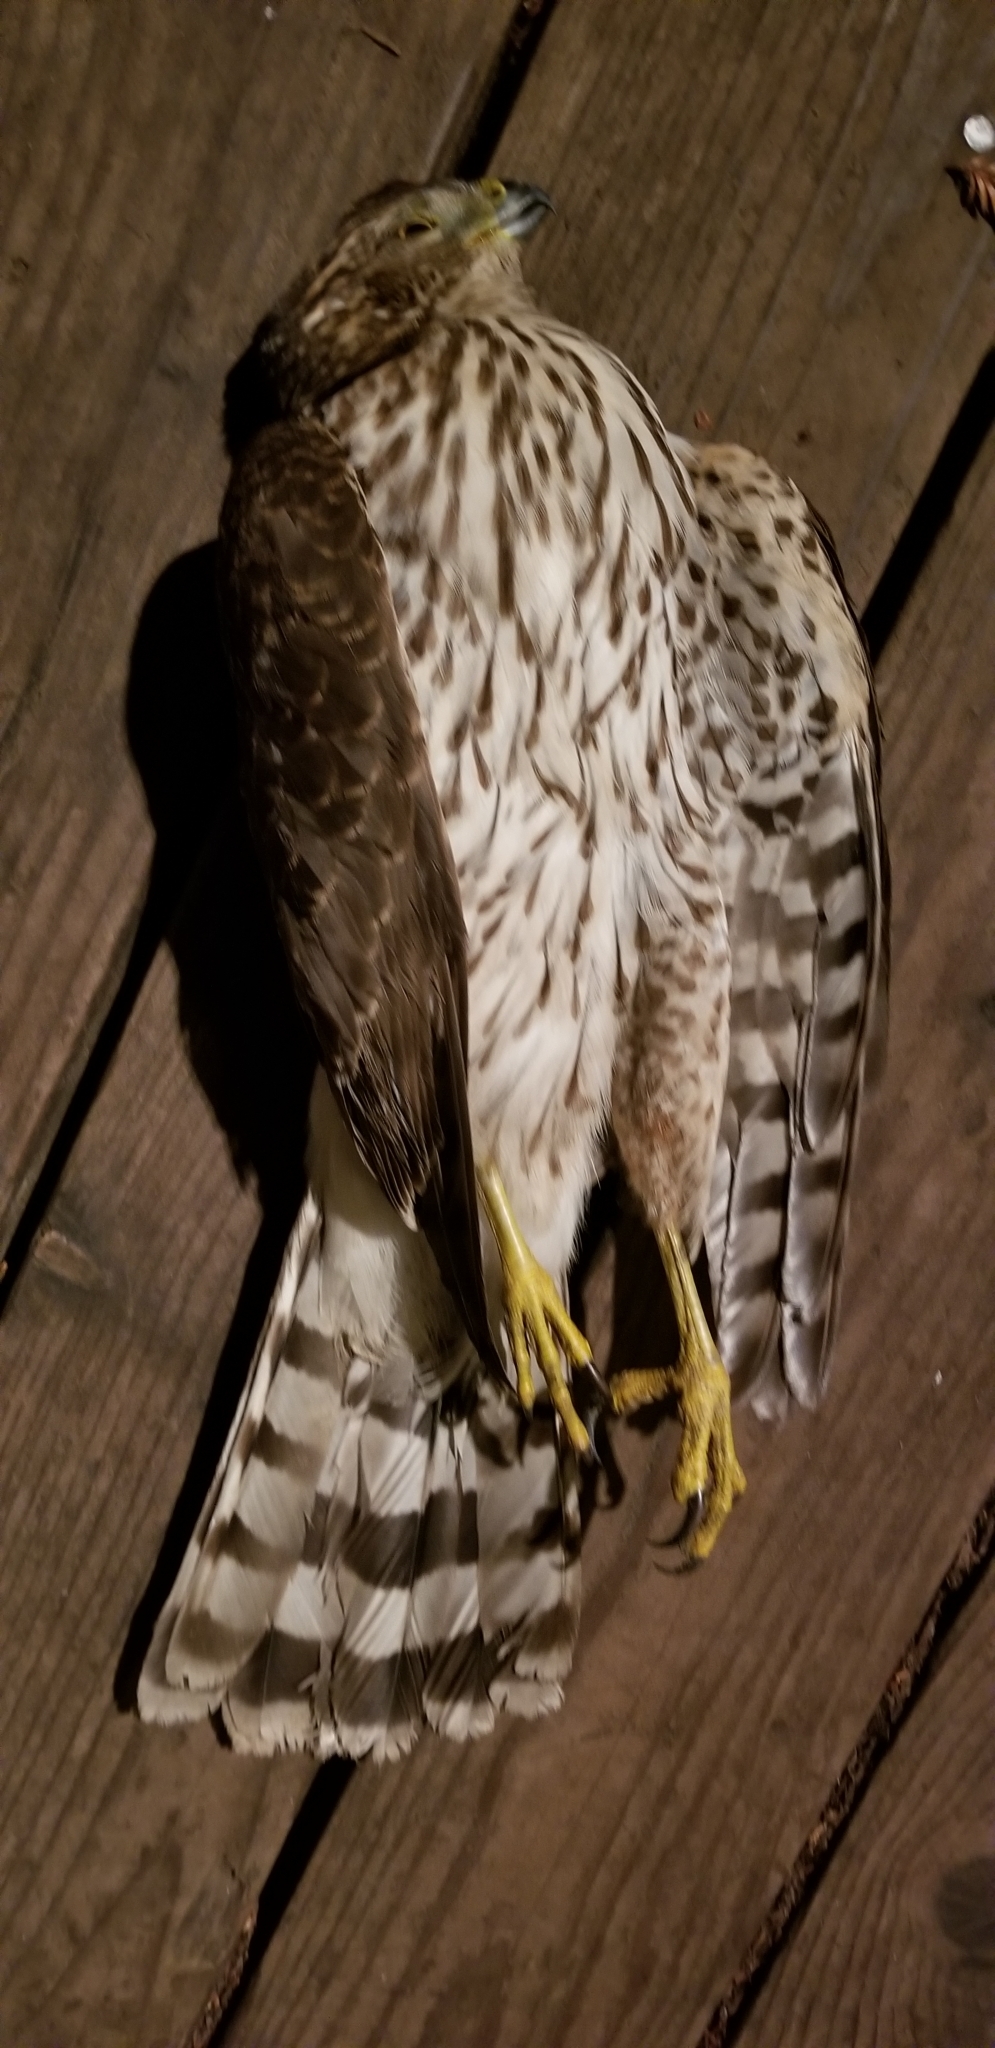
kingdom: Animalia
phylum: Chordata
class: Aves
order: Accipitriformes
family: Accipitridae
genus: Accipiter
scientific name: Accipiter cooperii
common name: Cooper's hawk
